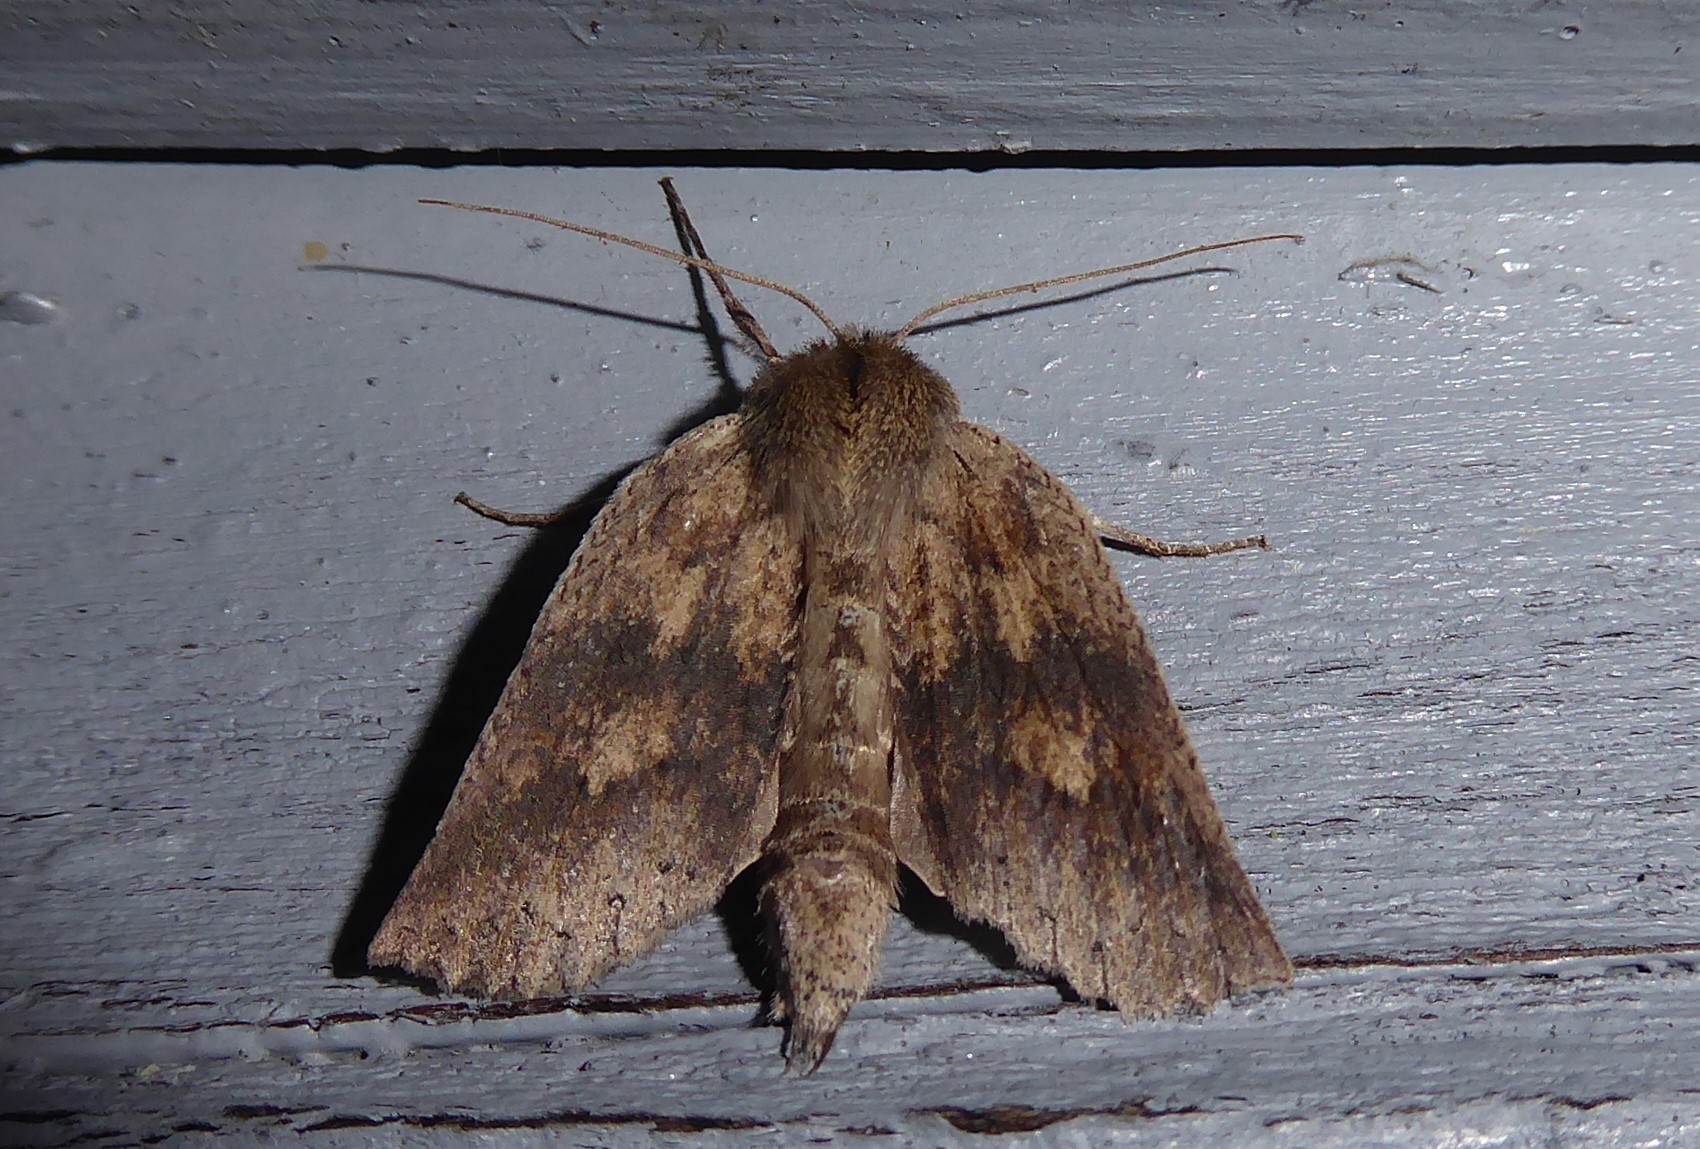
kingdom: Animalia
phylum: Arthropoda
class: Insecta
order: Lepidoptera
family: Geometridae
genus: Declana
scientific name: Declana leptomera
